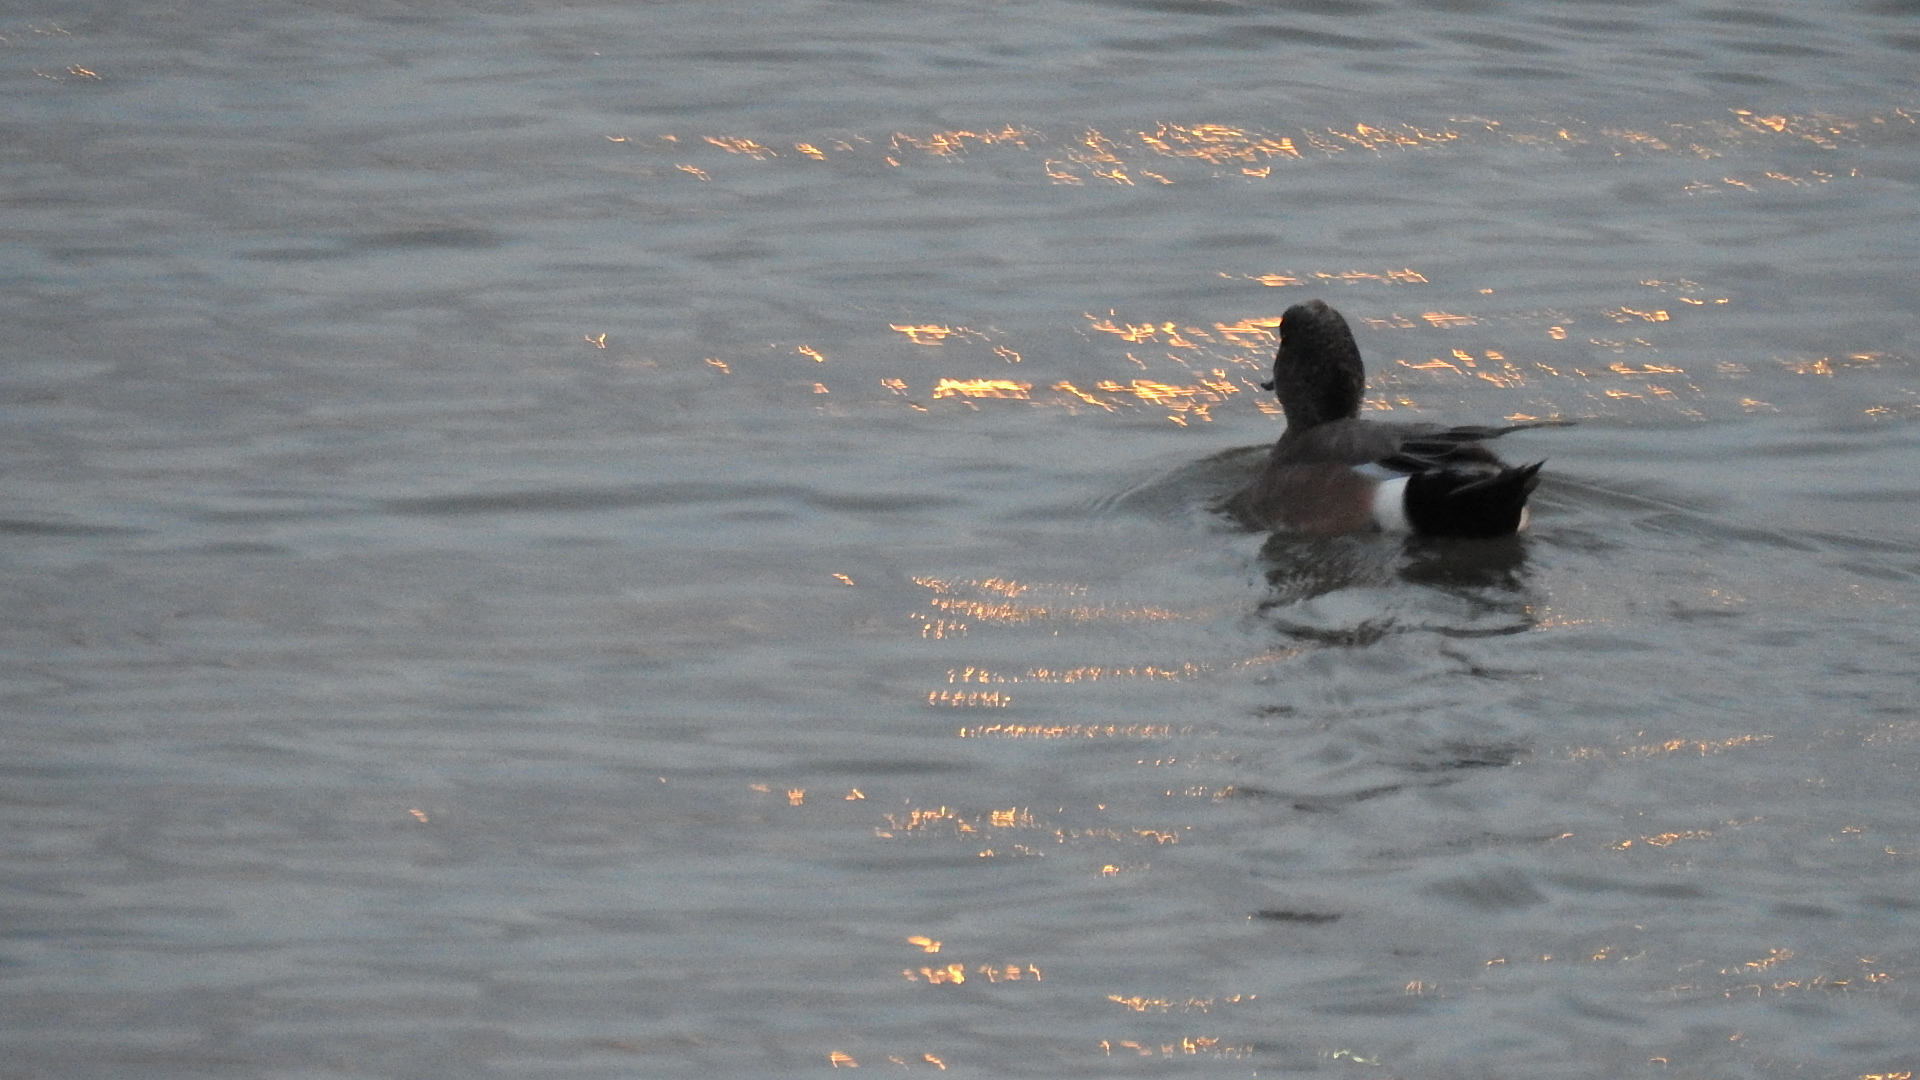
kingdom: Animalia
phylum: Chordata
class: Aves
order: Anseriformes
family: Anatidae
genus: Mareca
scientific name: Mareca americana
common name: American wigeon
